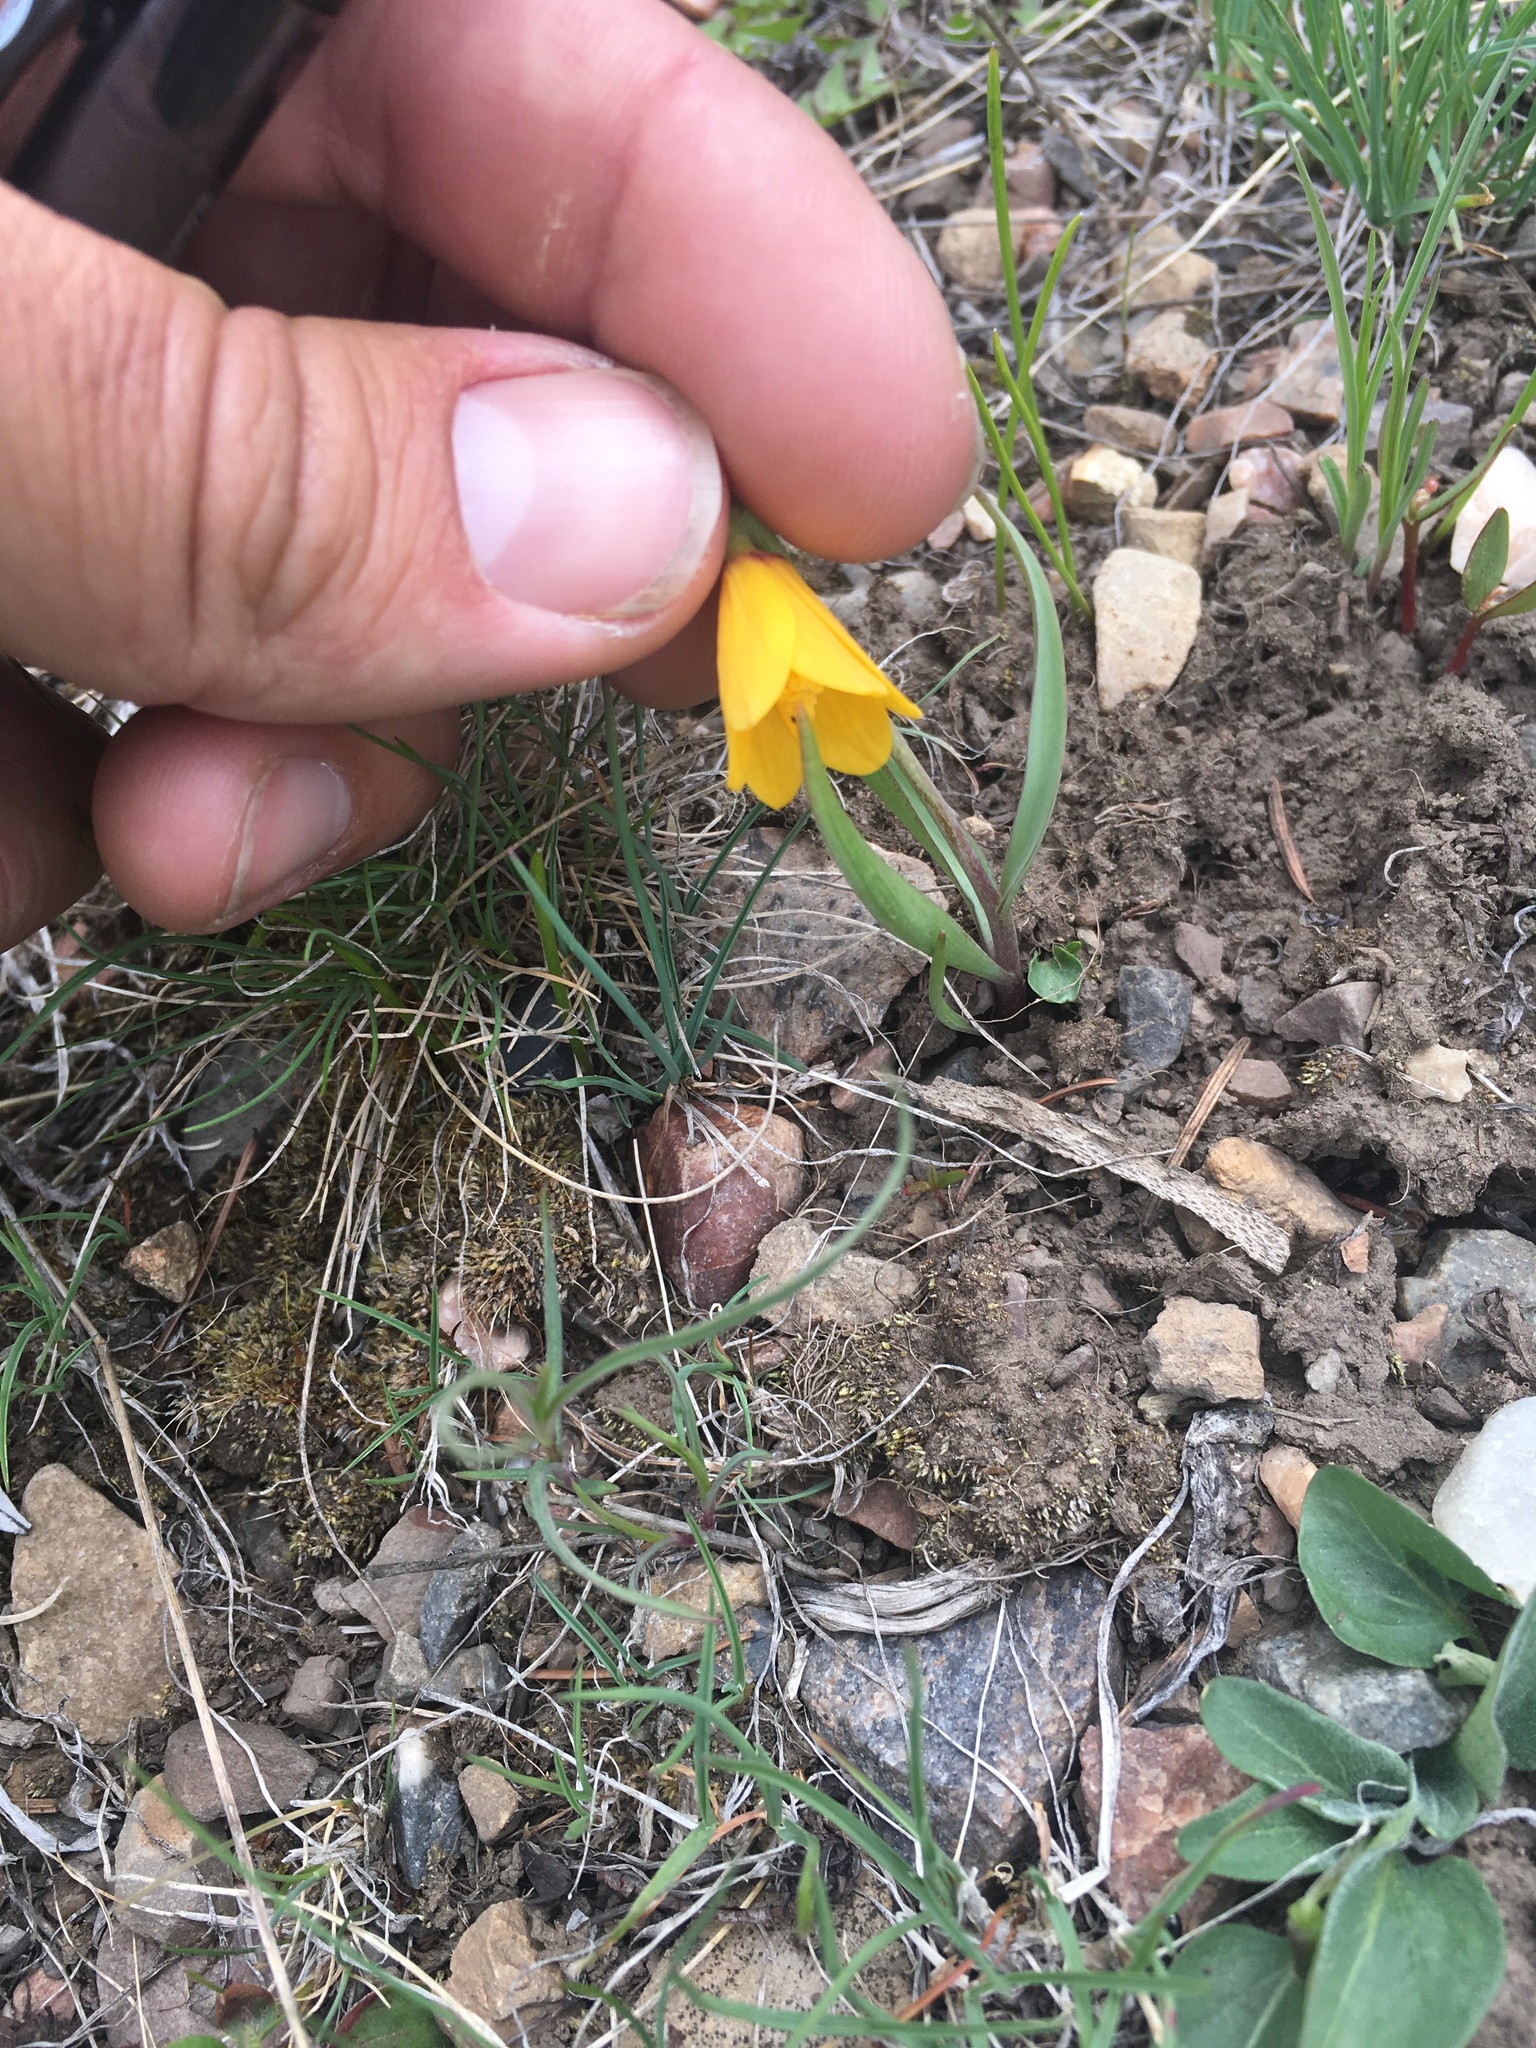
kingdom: Plantae
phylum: Tracheophyta
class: Liliopsida
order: Liliales
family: Liliaceae
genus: Fritillaria
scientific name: Fritillaria pudica
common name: Yellow fritillary
